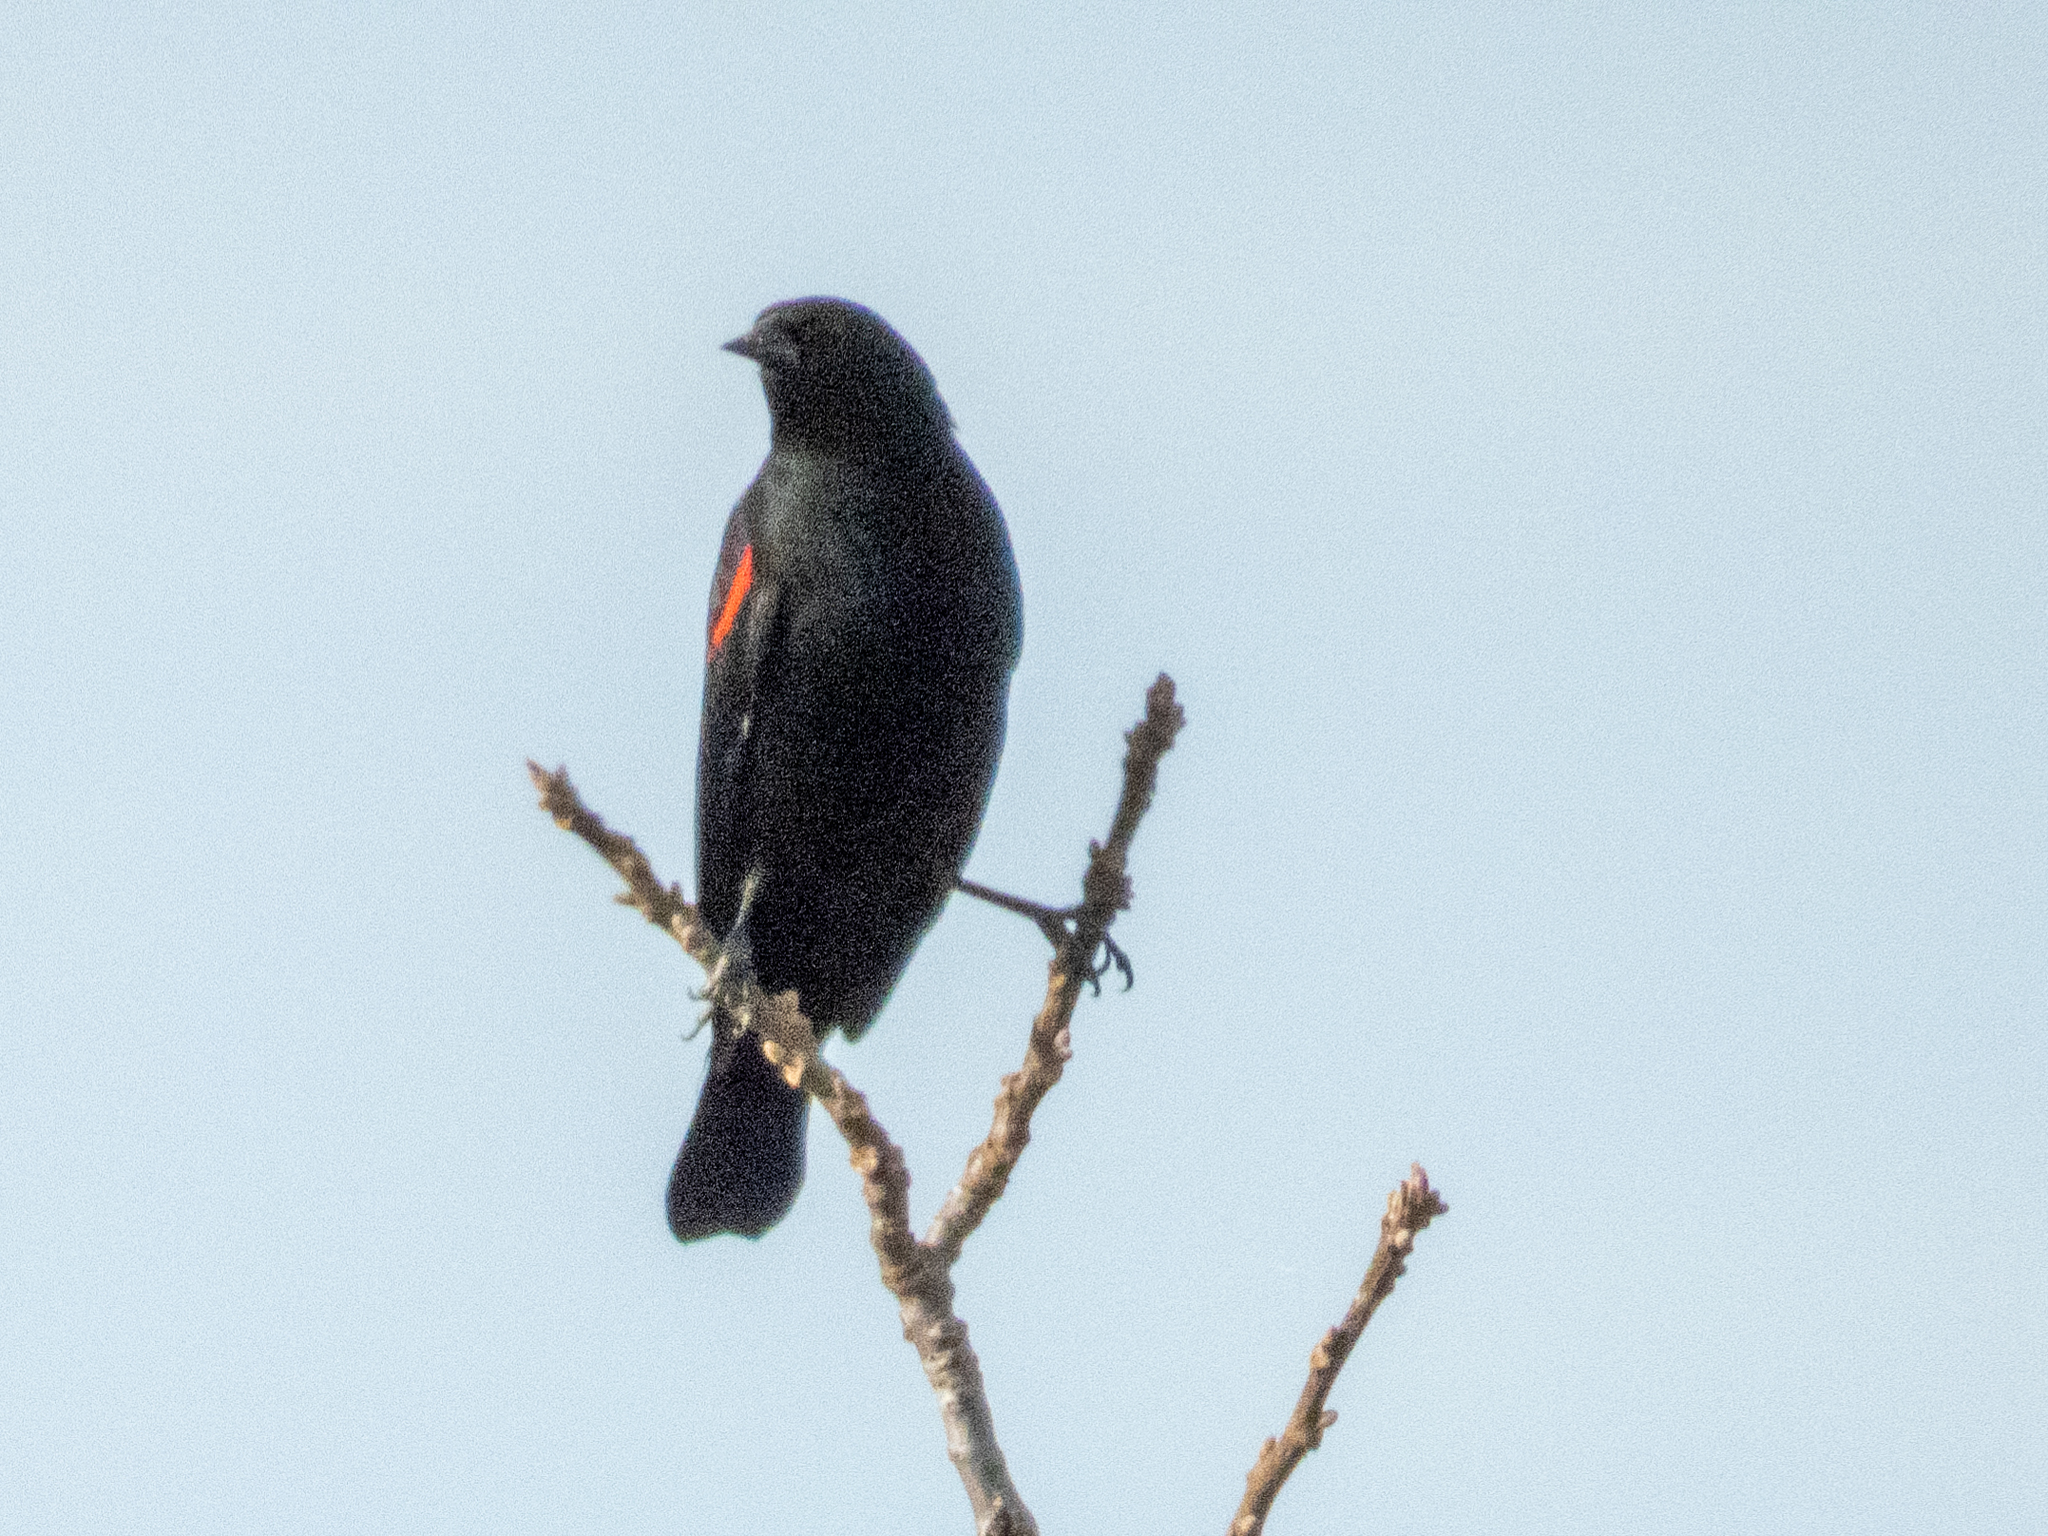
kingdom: Animalia
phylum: Chordata
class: Aves
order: Passeriformes
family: Icteridae
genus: Agelaius
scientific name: Agelaius phoeniceus
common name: Red-winged blackbird
